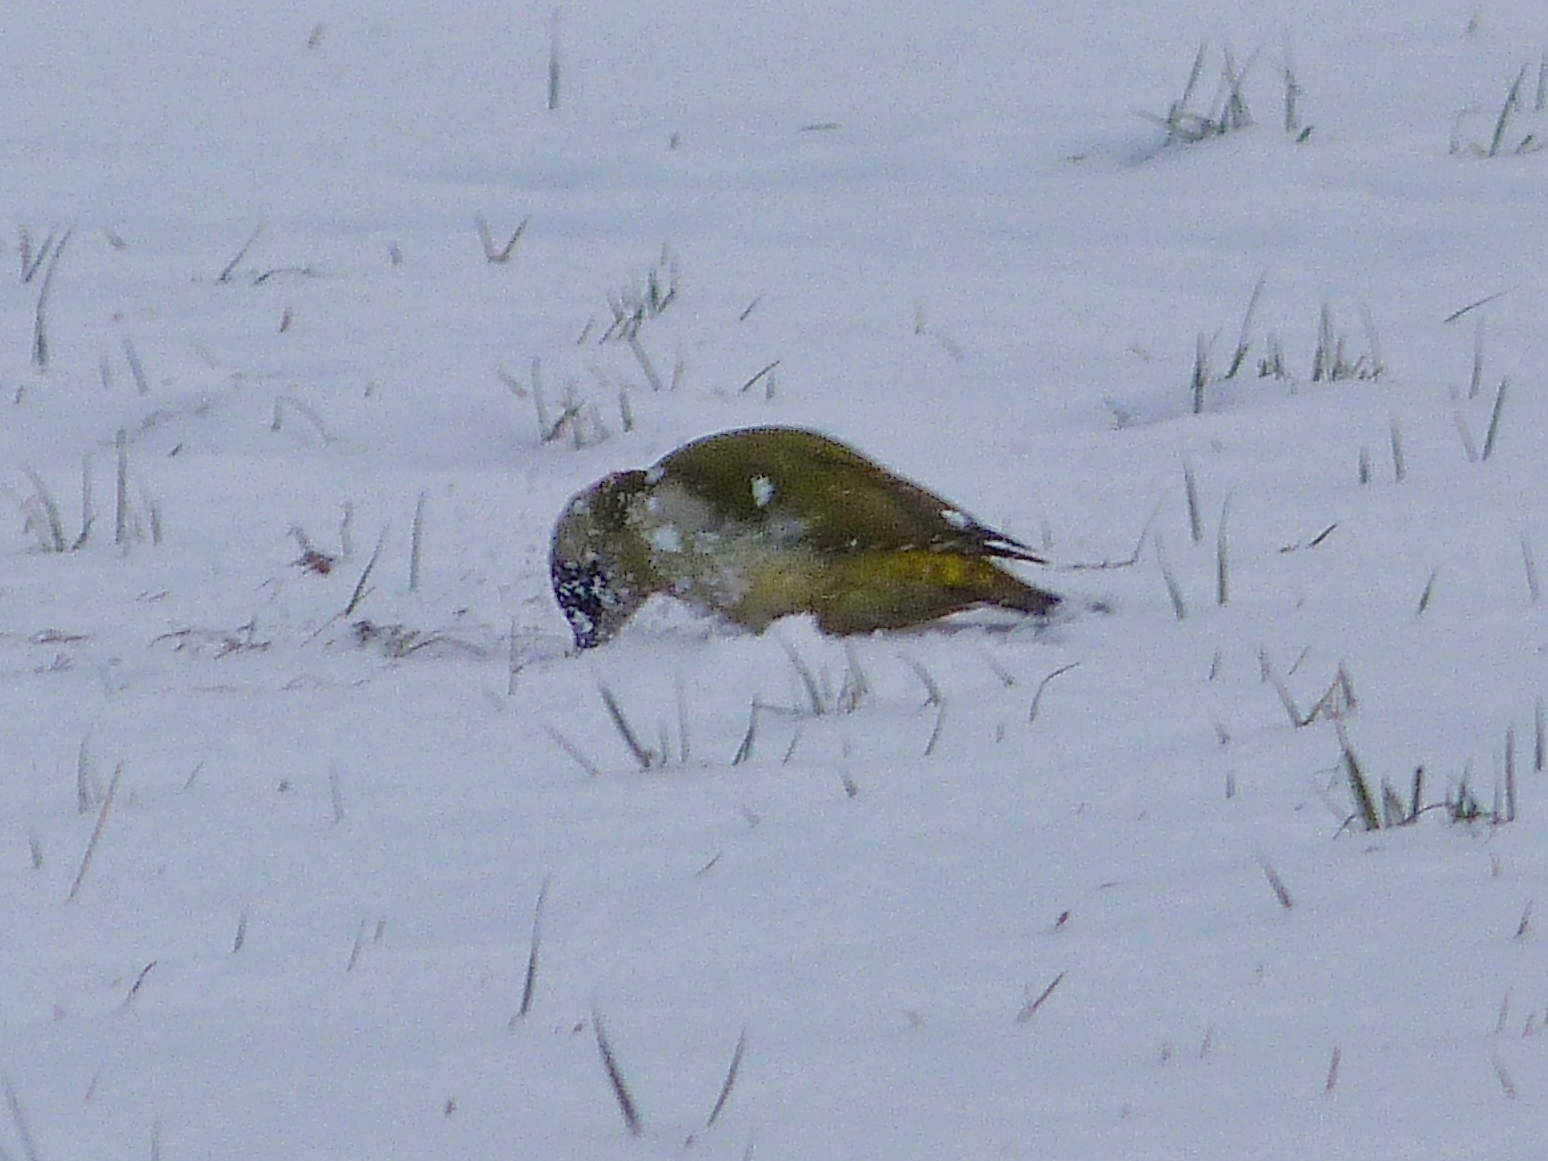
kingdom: Animalia
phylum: Chordata
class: Aves
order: Piciformes
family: Picidae
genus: Picus
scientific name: Picus viridis
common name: European green woodpecker
